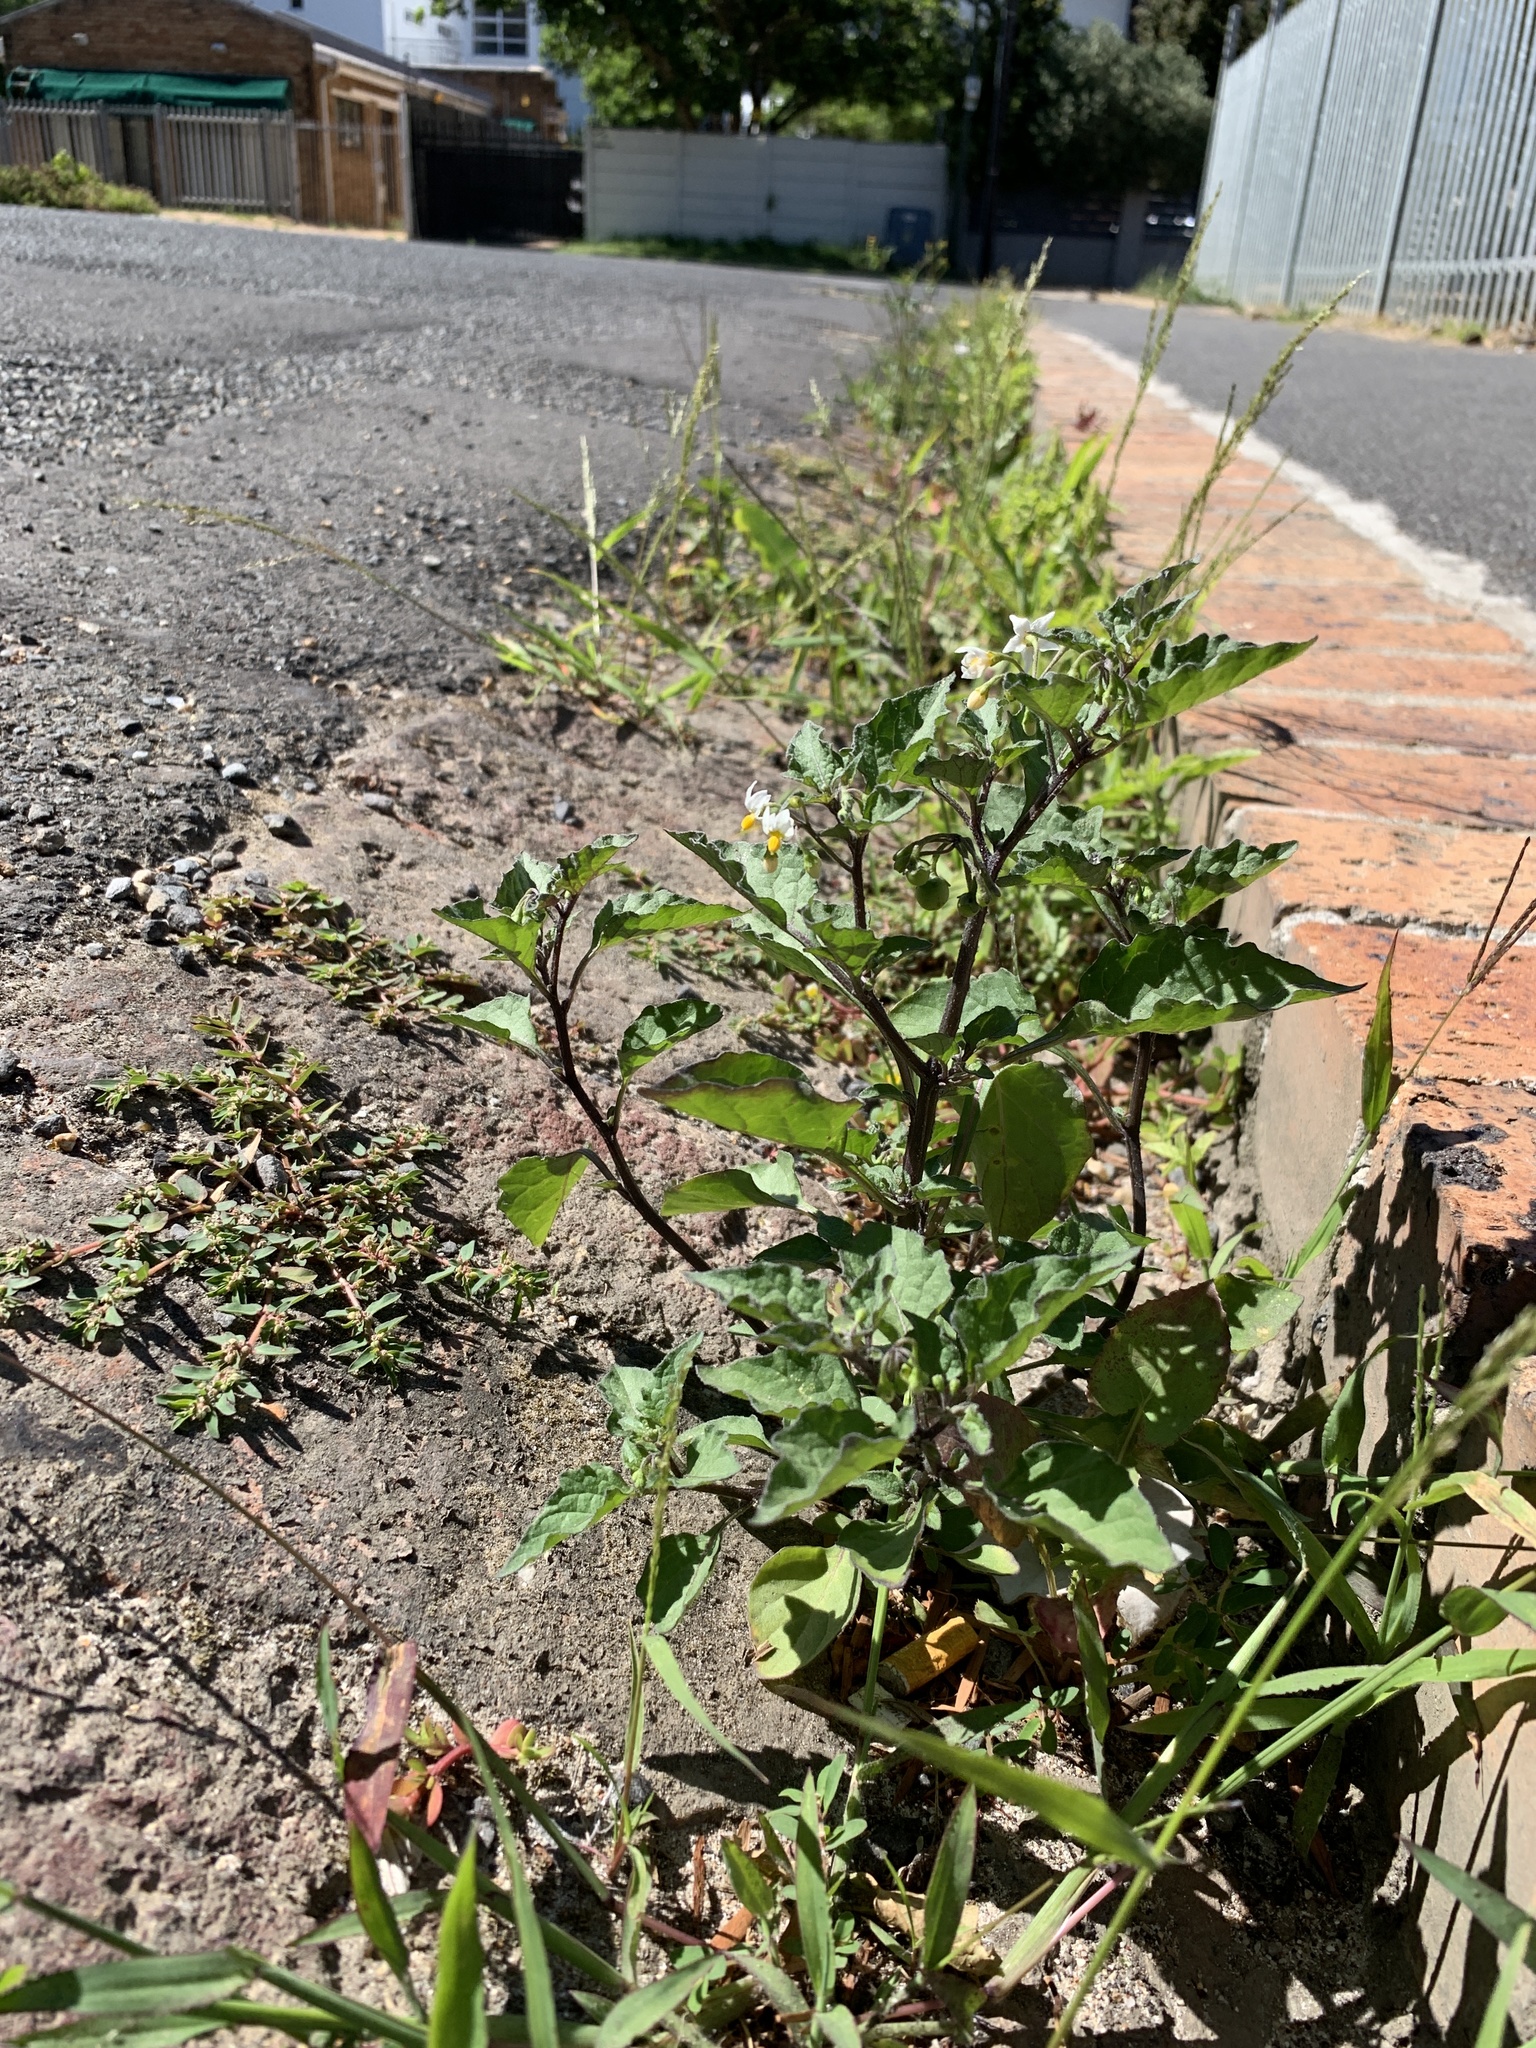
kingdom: Plantae
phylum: Tracheophyta
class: Magnoliopsida
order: Solanales
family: Solanaceae
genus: Solanum
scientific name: Solanum nigrum
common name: Black nightshade
